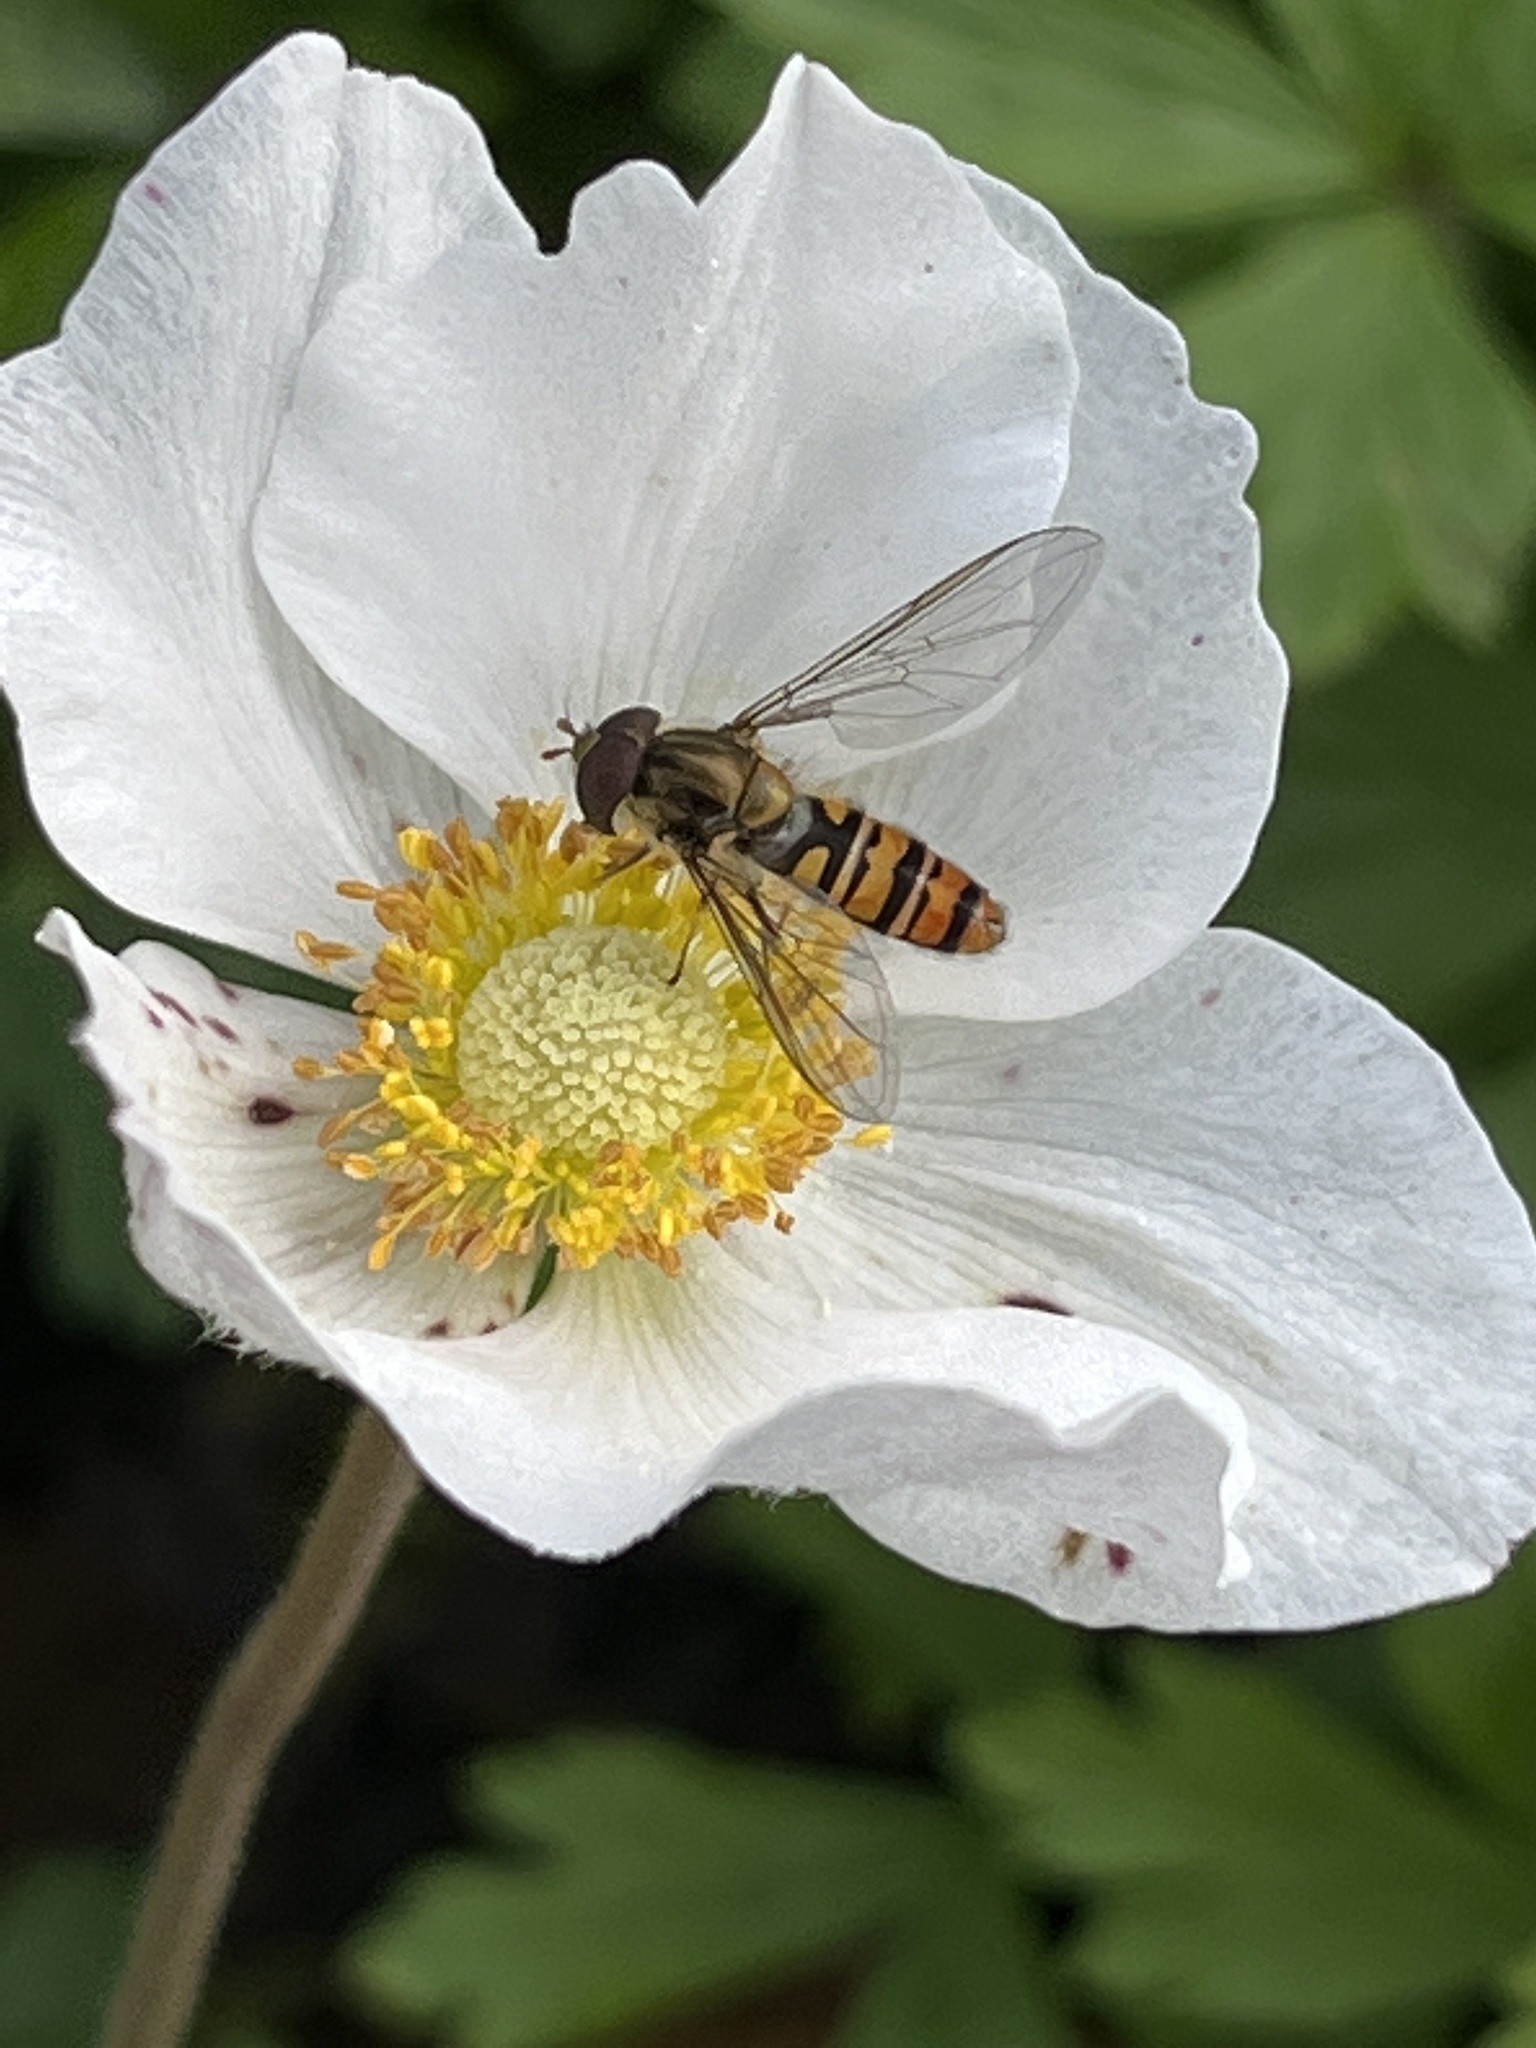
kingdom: Animalia
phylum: Arthropoda
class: Insecta
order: Diptera
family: Syrphidae
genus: Episyrphus
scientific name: Episyrphus balteatus
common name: Marmalade hoverfly
